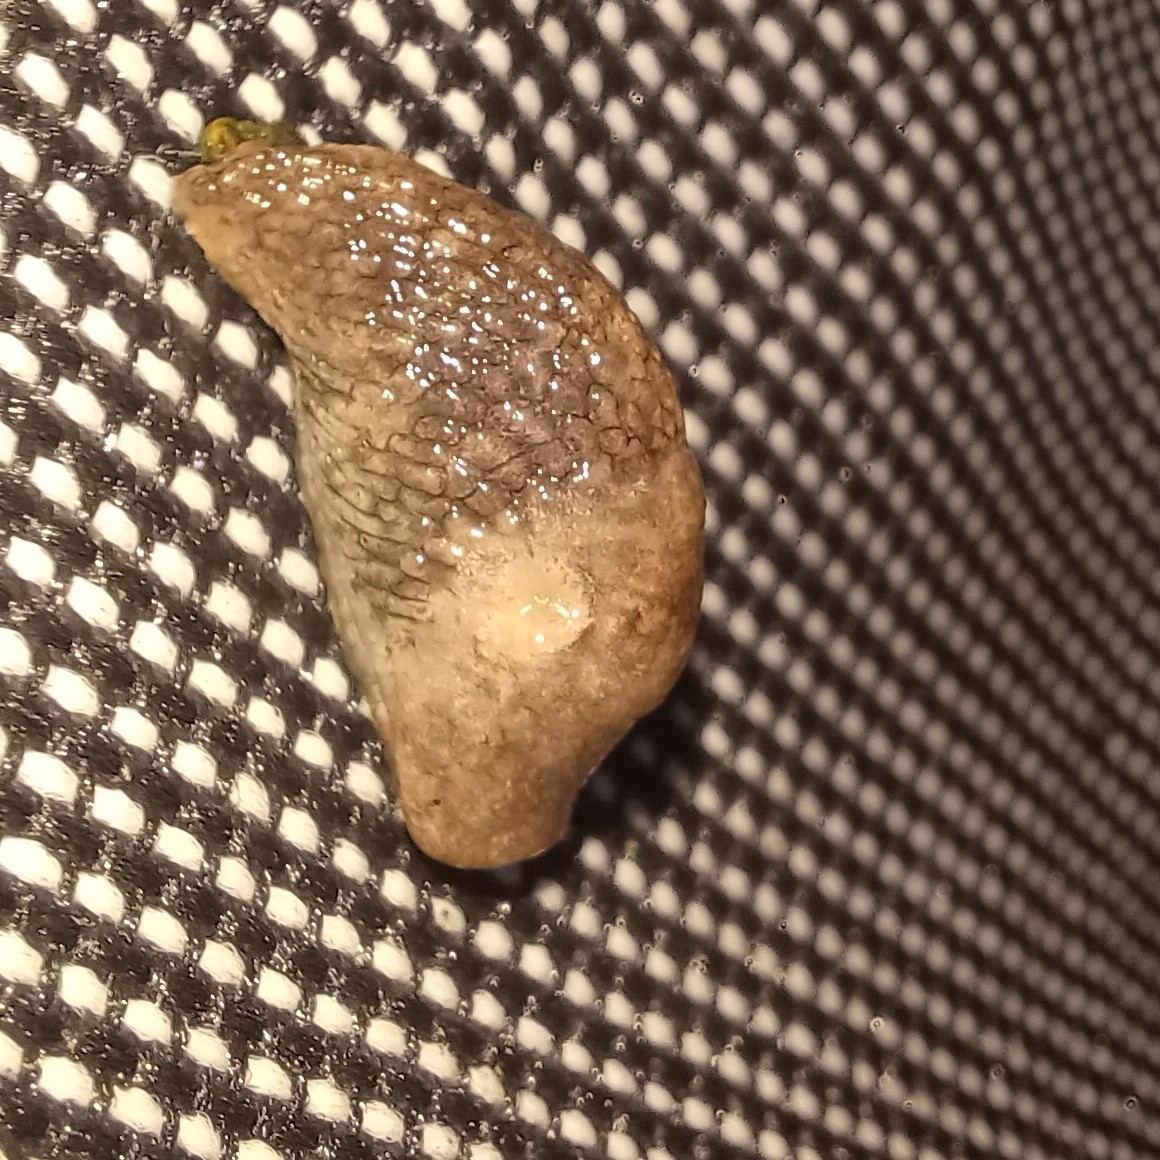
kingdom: Animalia
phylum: Mollusca
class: Gastropoda
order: Stylommatophora
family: Agriolimacidae
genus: Deroceras
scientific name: Deroceras reticulatum
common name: Gray field slug
